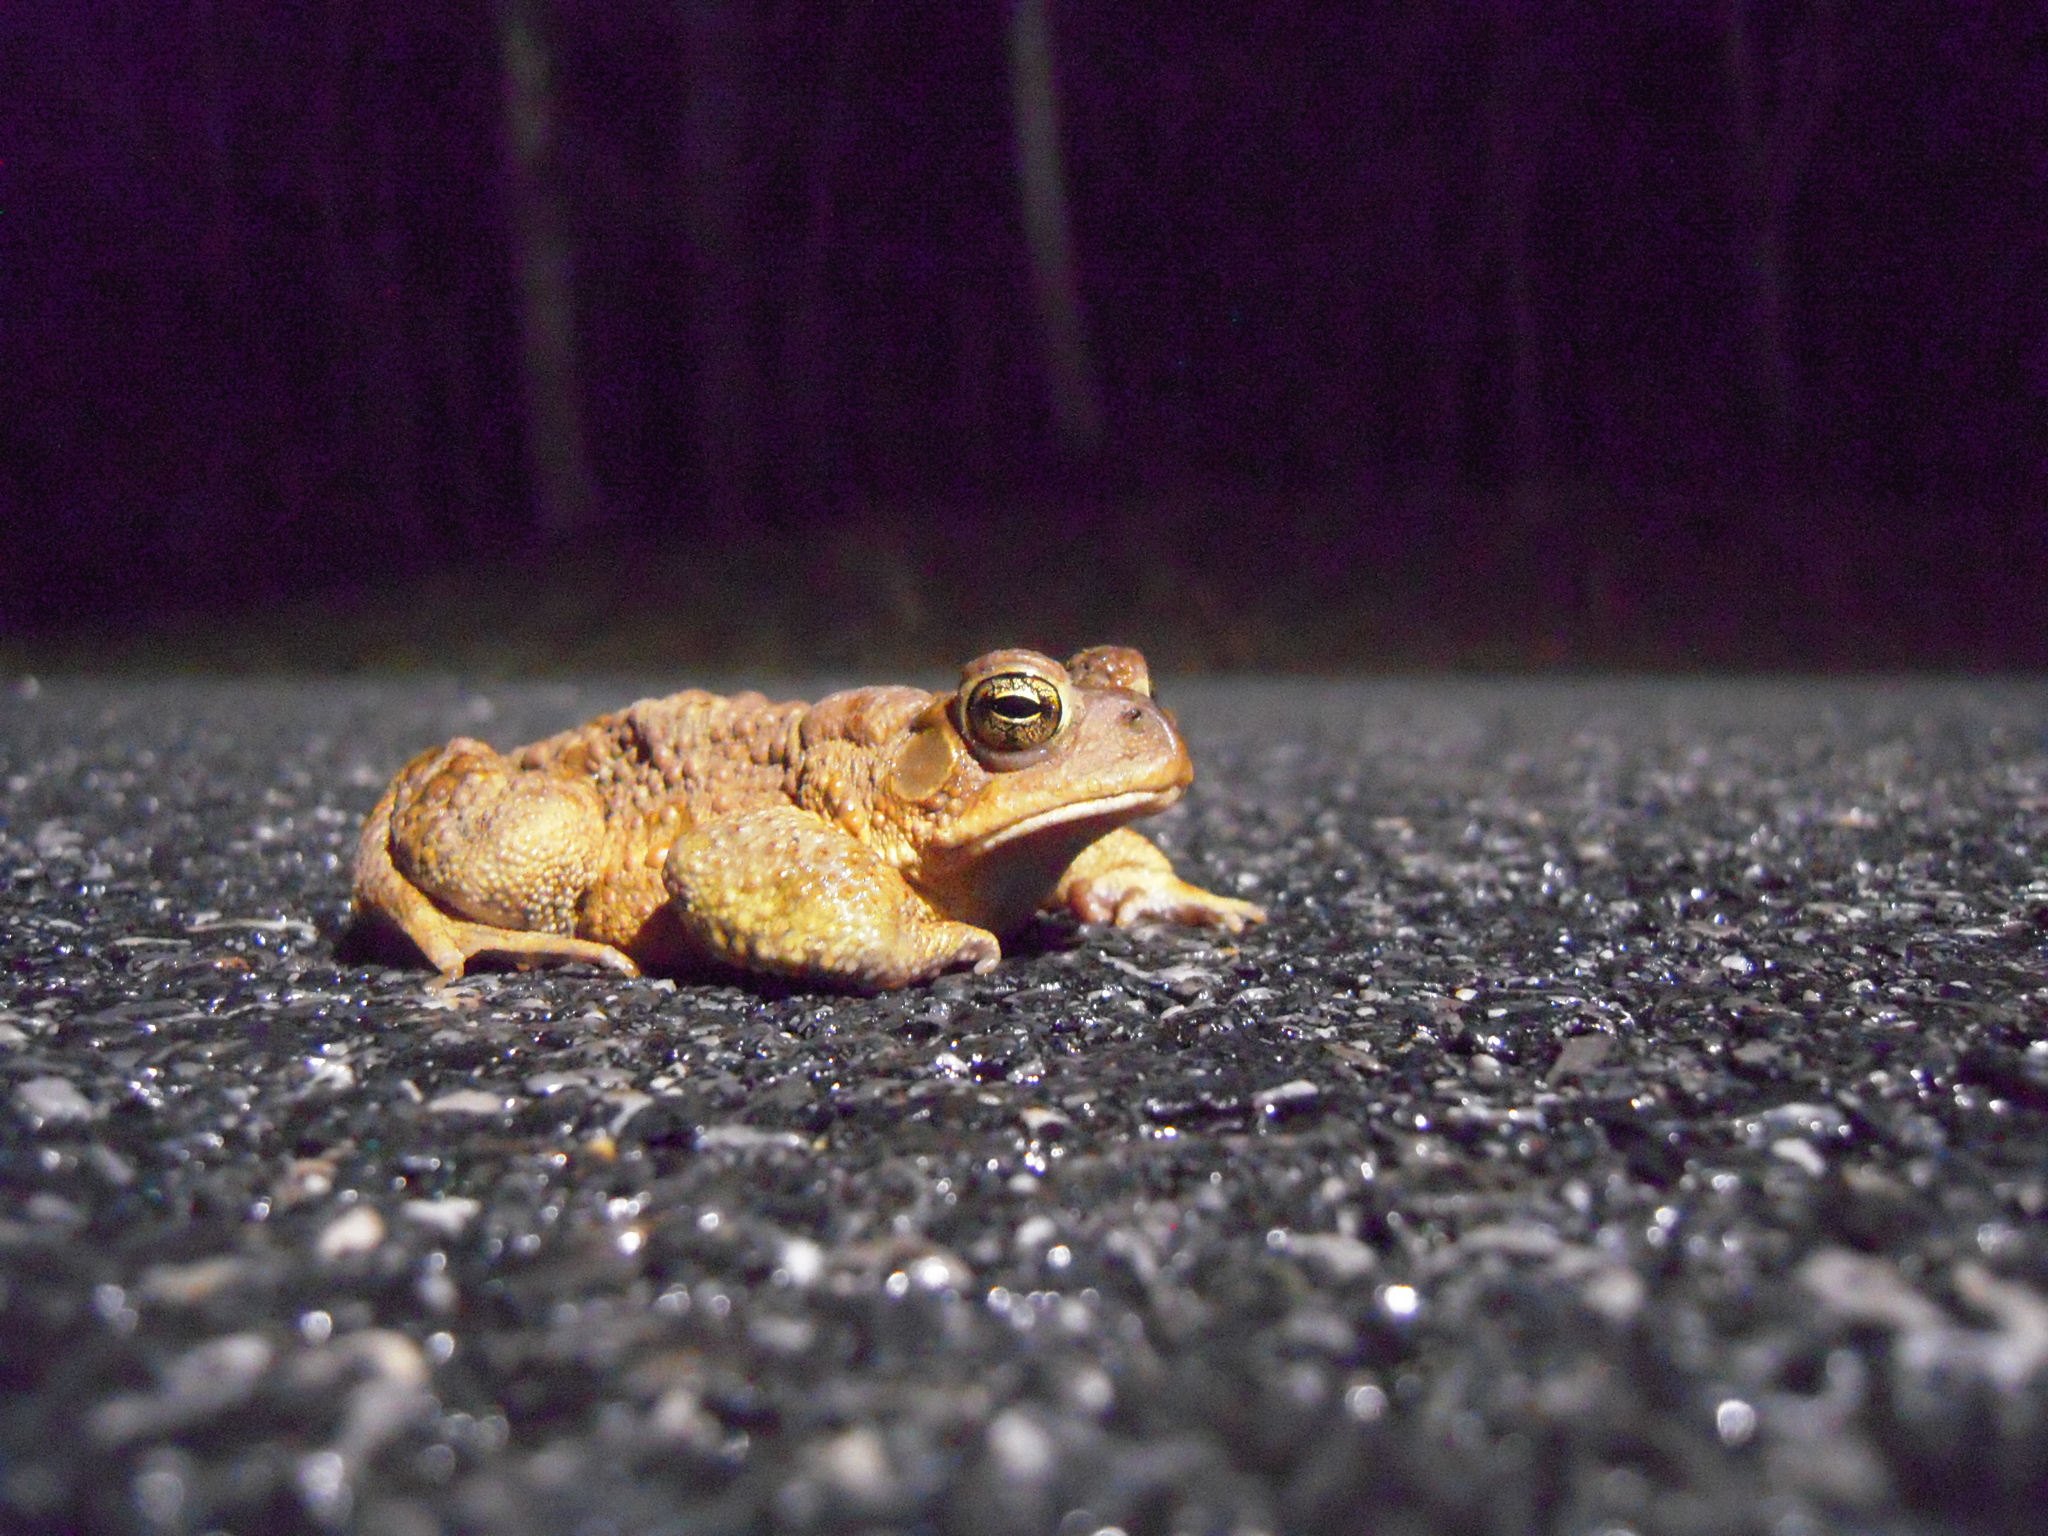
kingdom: Animalia
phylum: Chordata
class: Amphibia
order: Anura
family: Bufonidae
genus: Anaxyrus
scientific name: Anaxyrus americanus
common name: American toad
